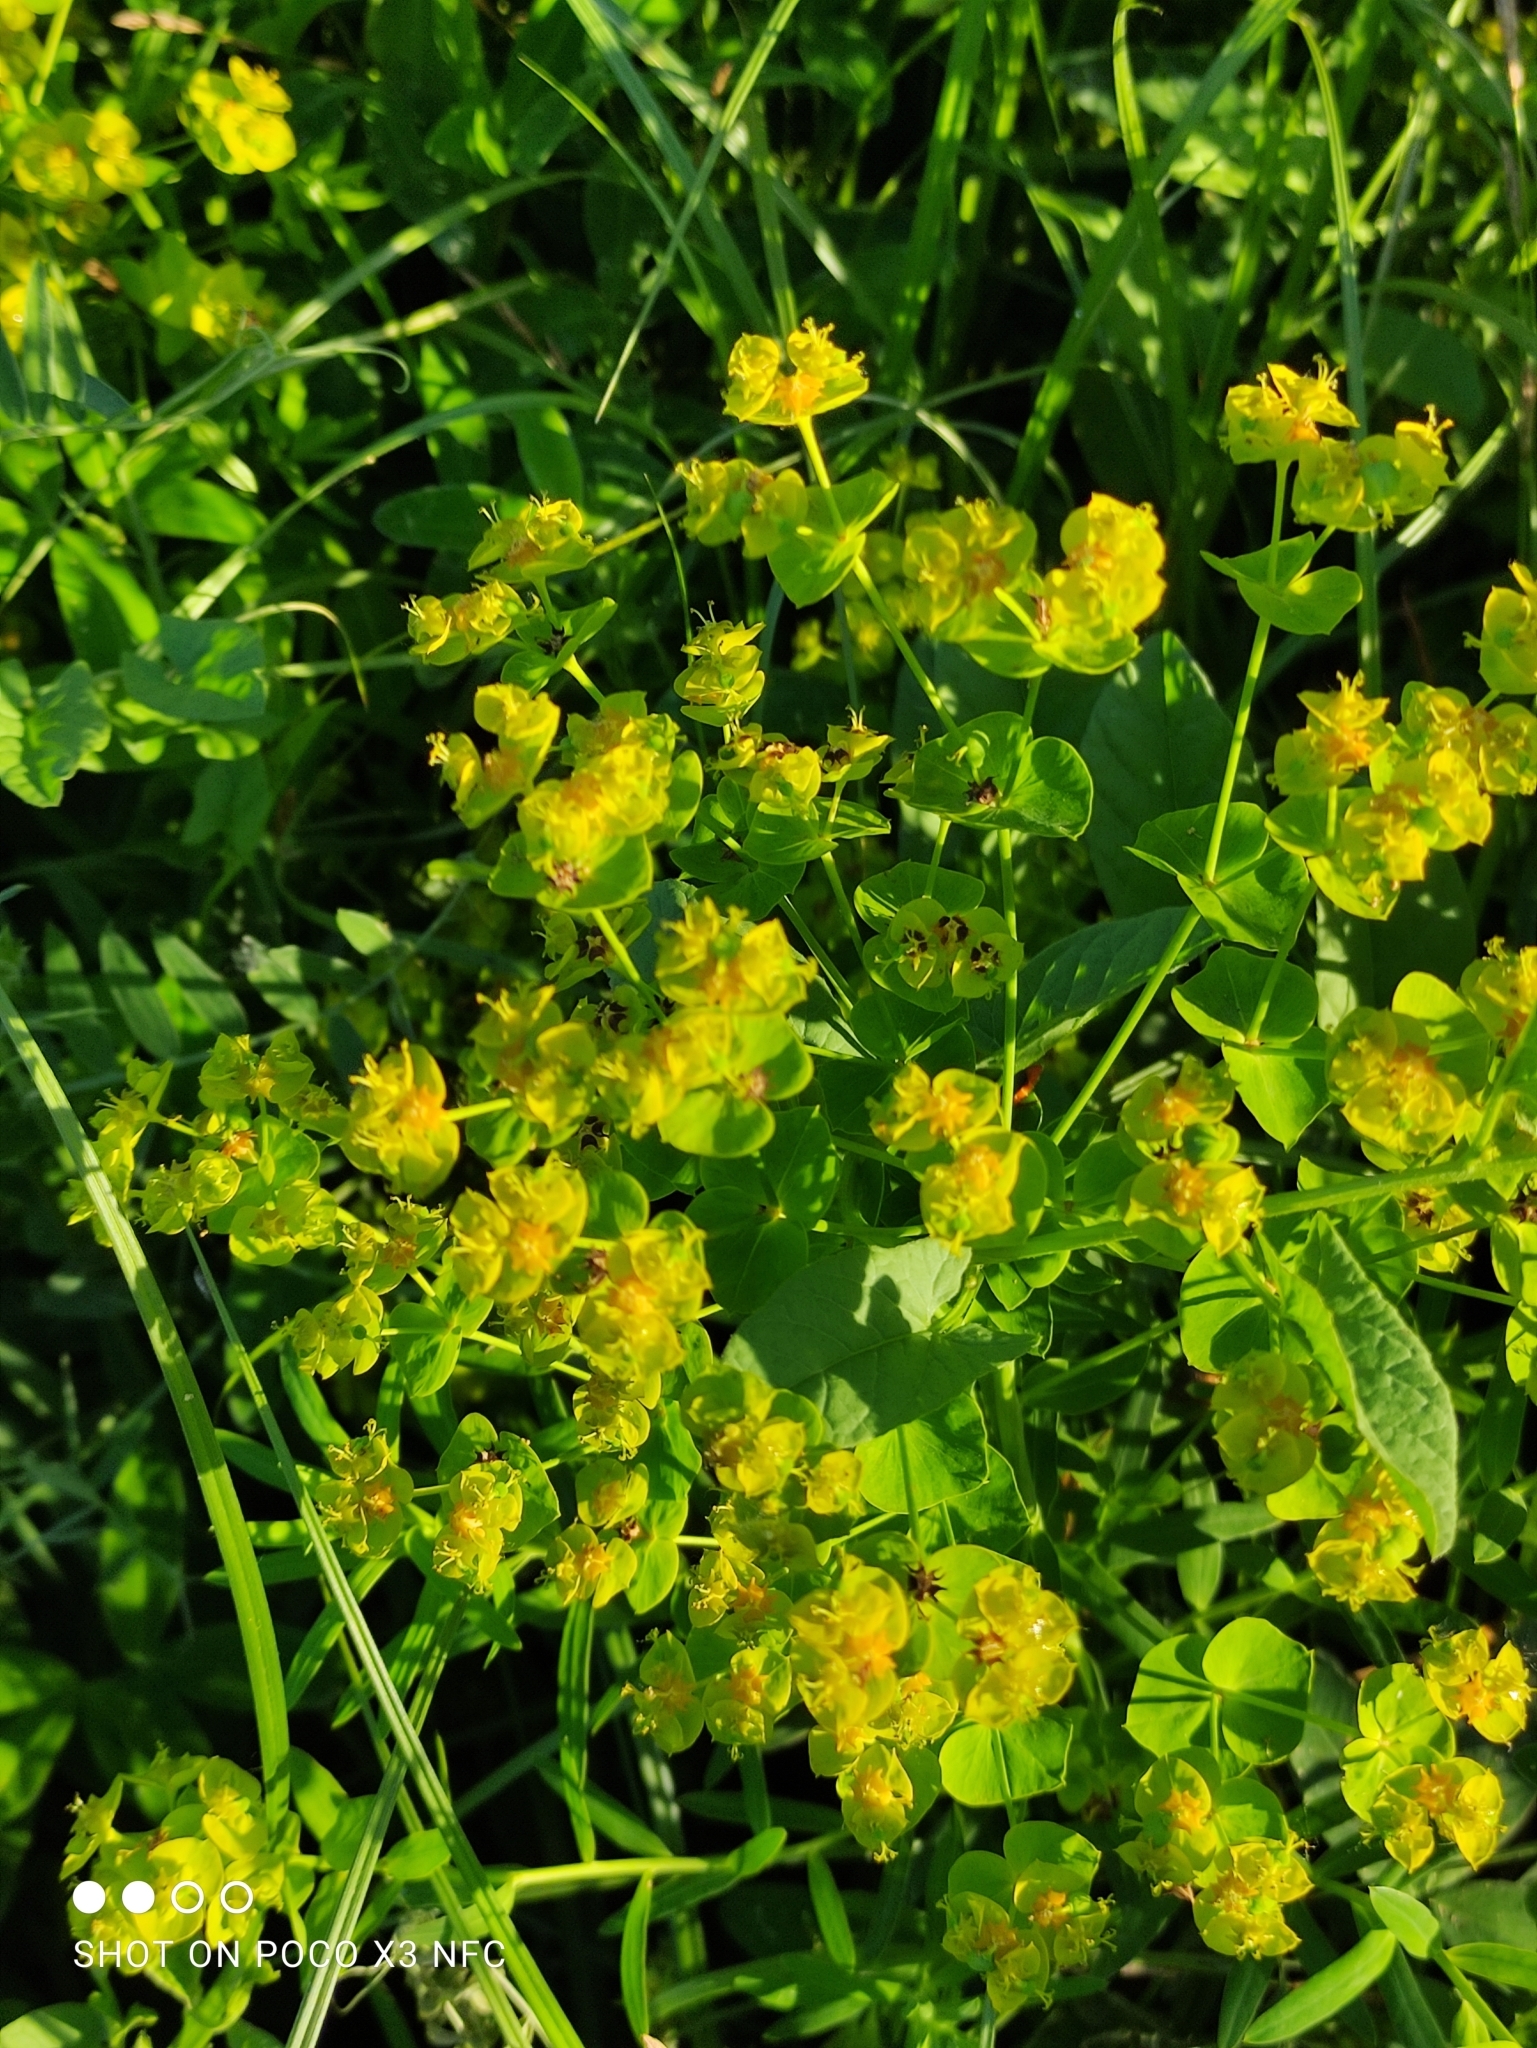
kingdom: Plantae
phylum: Tracheophyta
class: Magnoliopsida
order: Malpighiales
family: Euphorbiaceae
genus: Euphorbia
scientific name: Euphorbia virgata
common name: Leafy spurge
